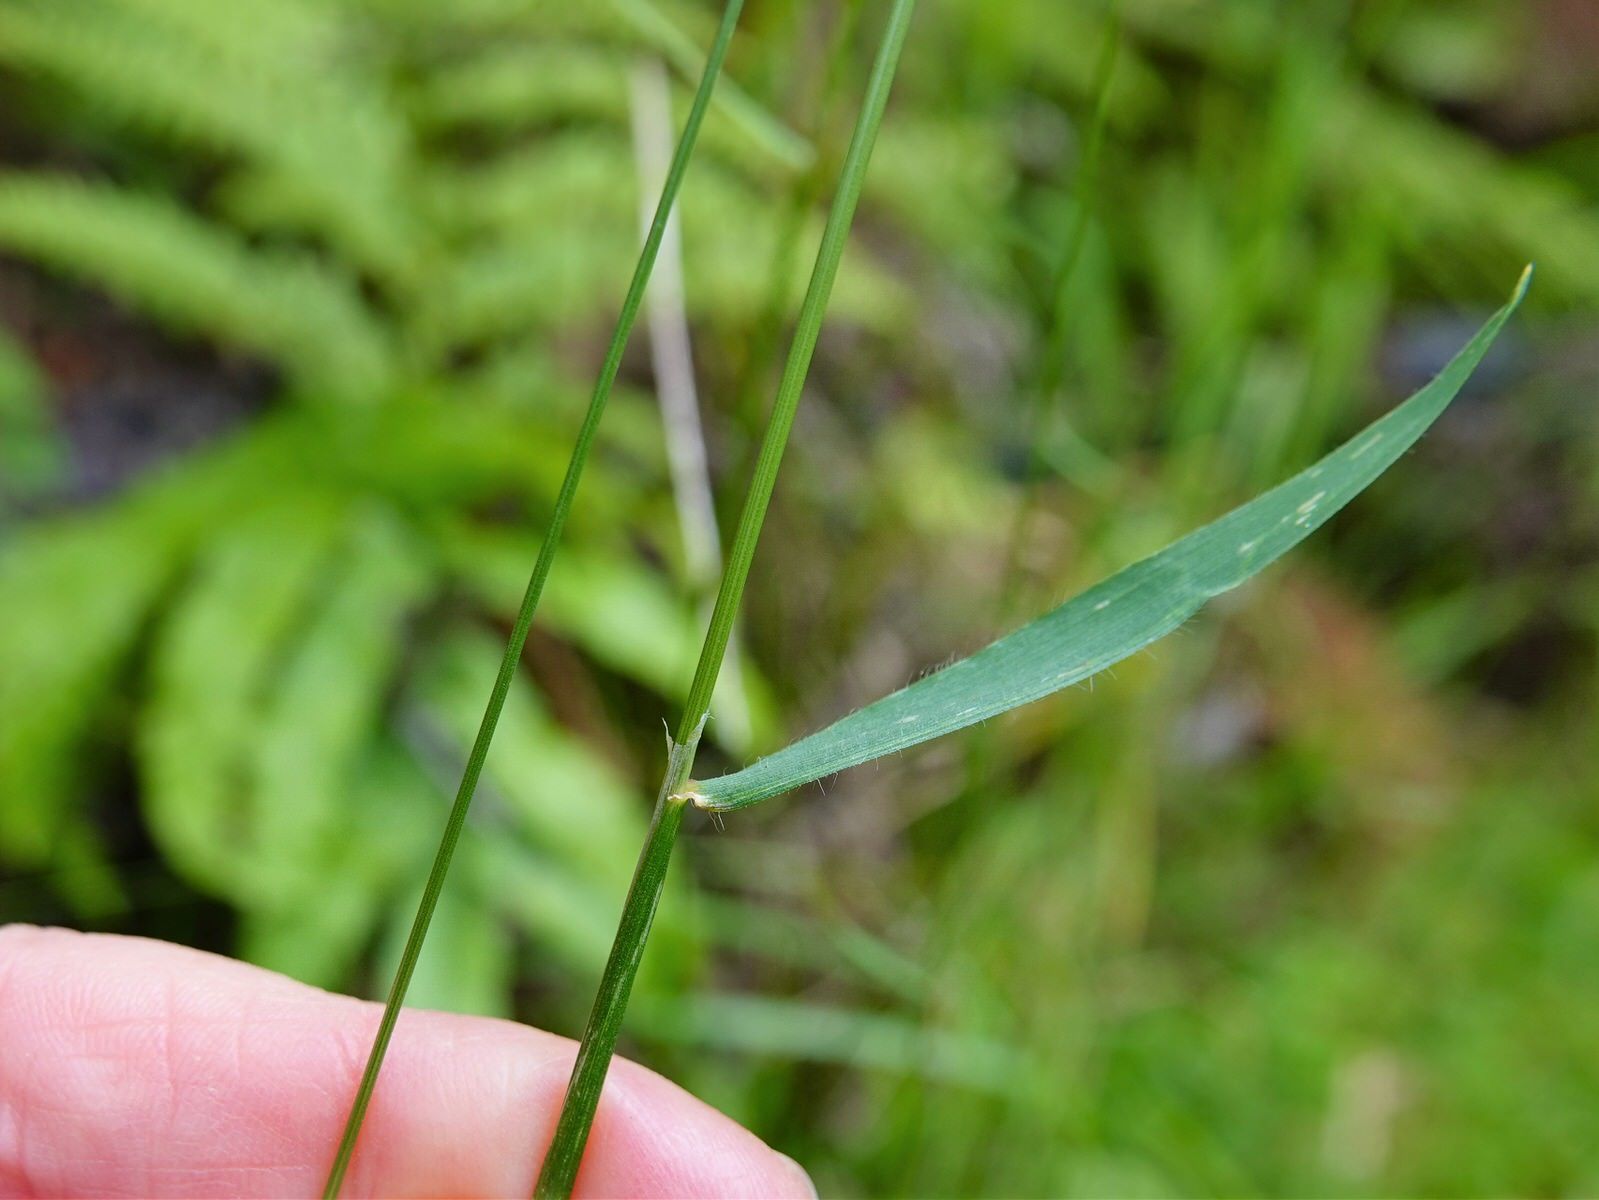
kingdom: Plantae
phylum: Tracheophyta
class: Liliopsida
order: Poales
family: Poaceae
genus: Anthoxanthum
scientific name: Anthoxanthum odoratum
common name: Sweet vernalgrass
